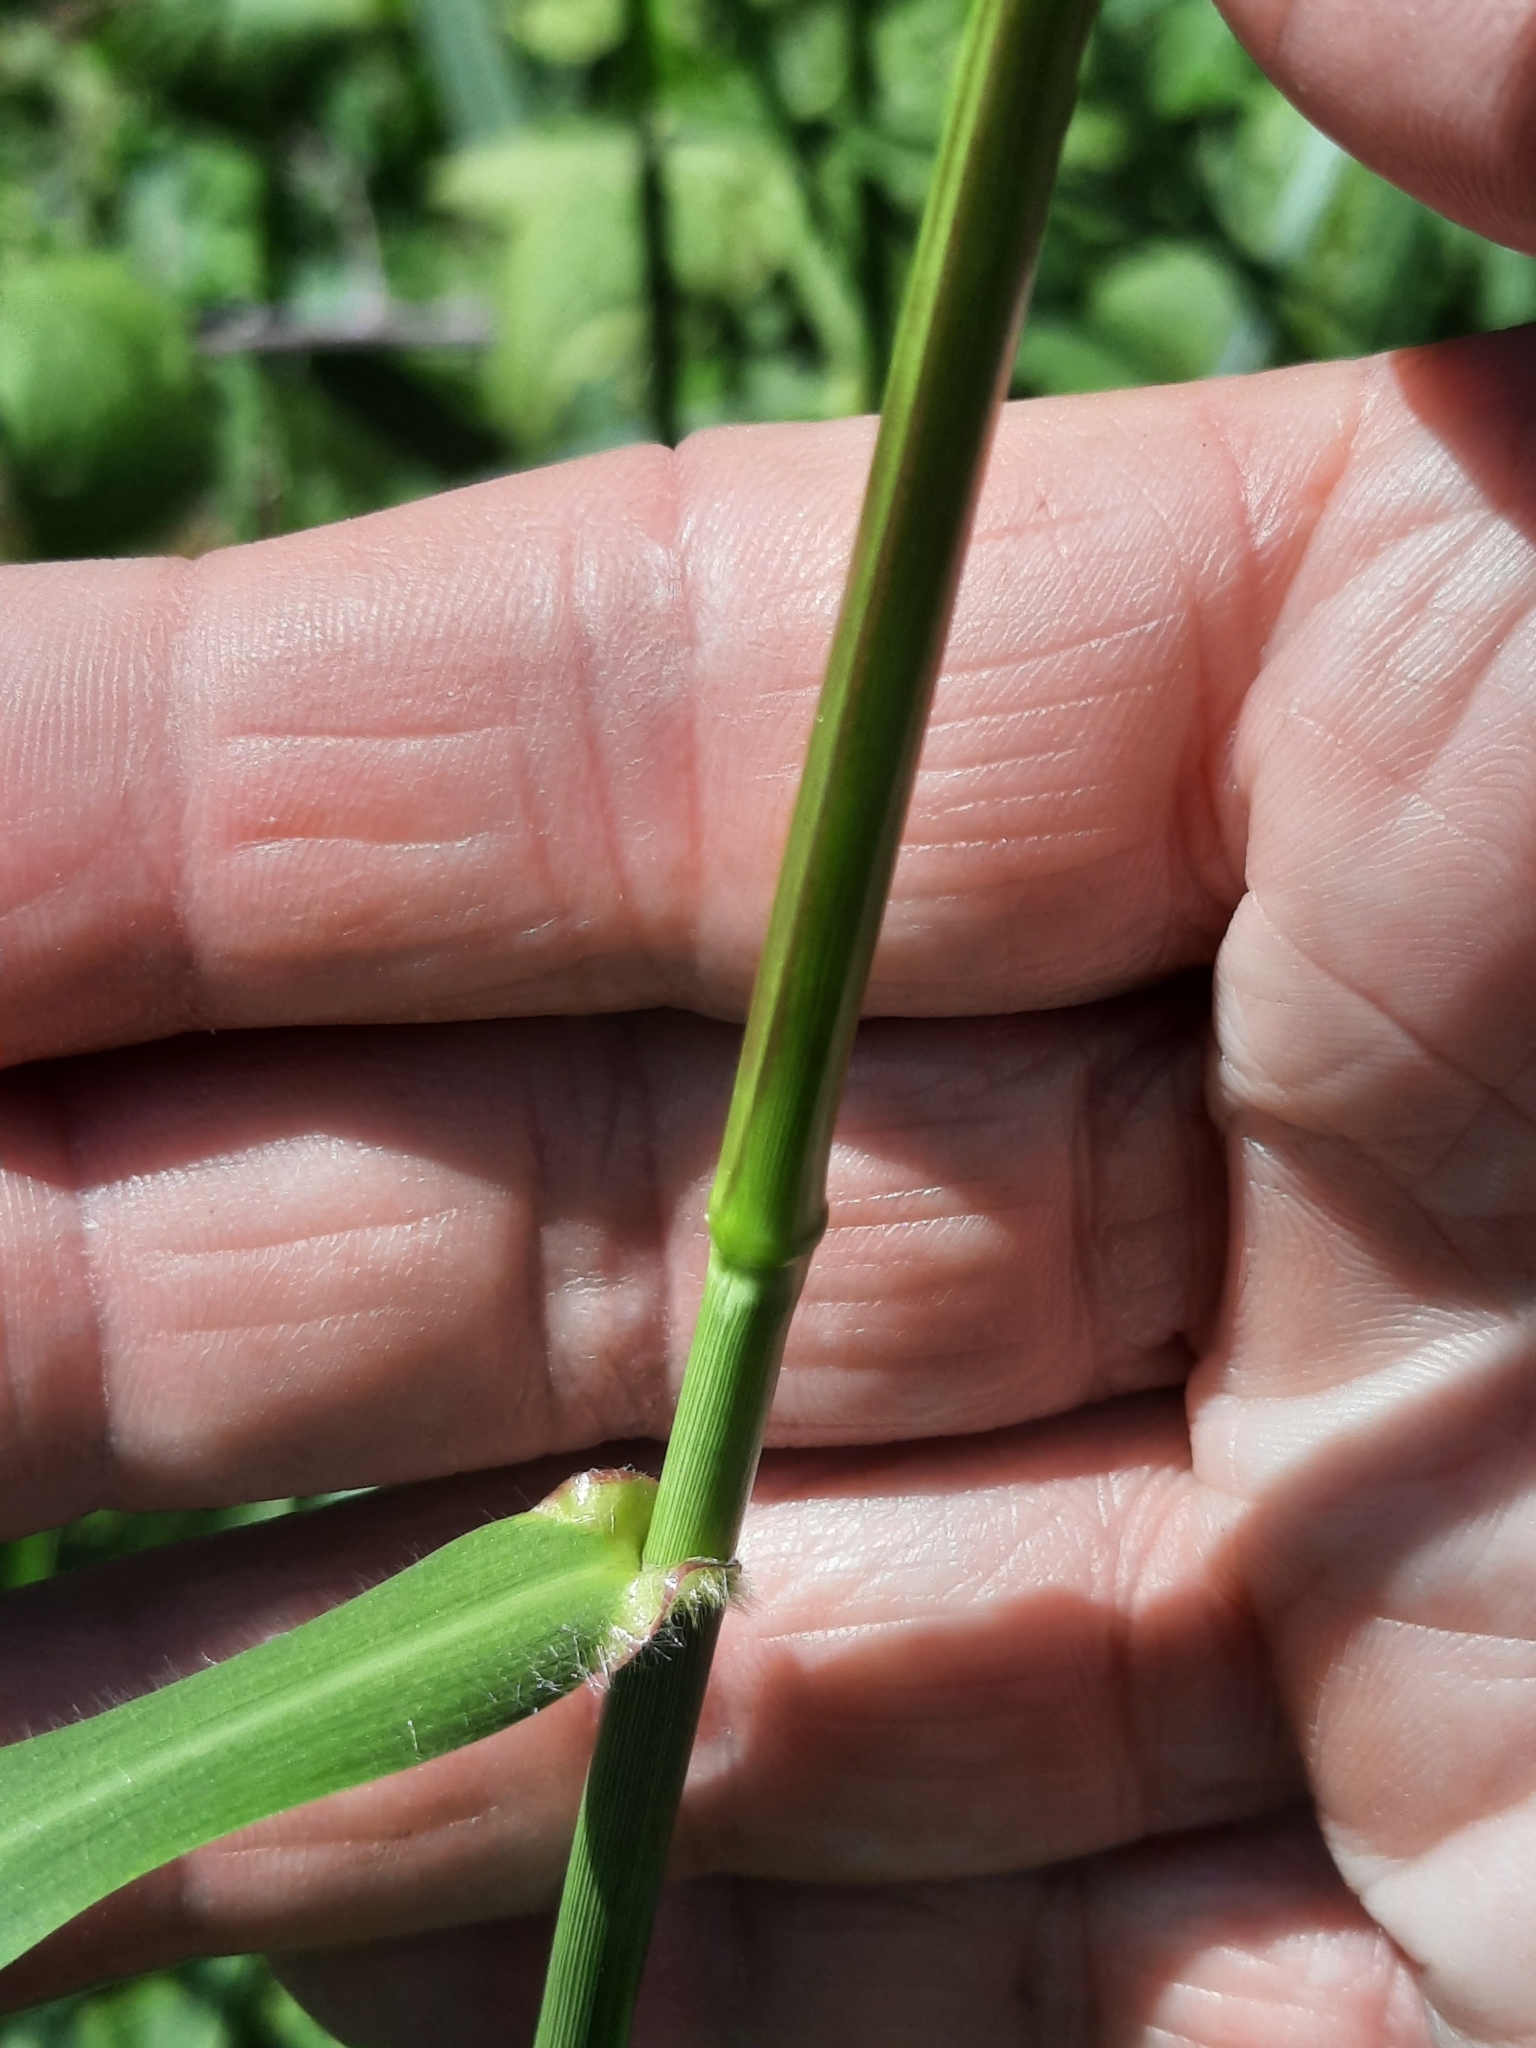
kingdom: Plantae
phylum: Tracheophyta
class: Liliopsida
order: Poales
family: Poaceae
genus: Tridens
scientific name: Tridens flavus
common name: Purpletop
